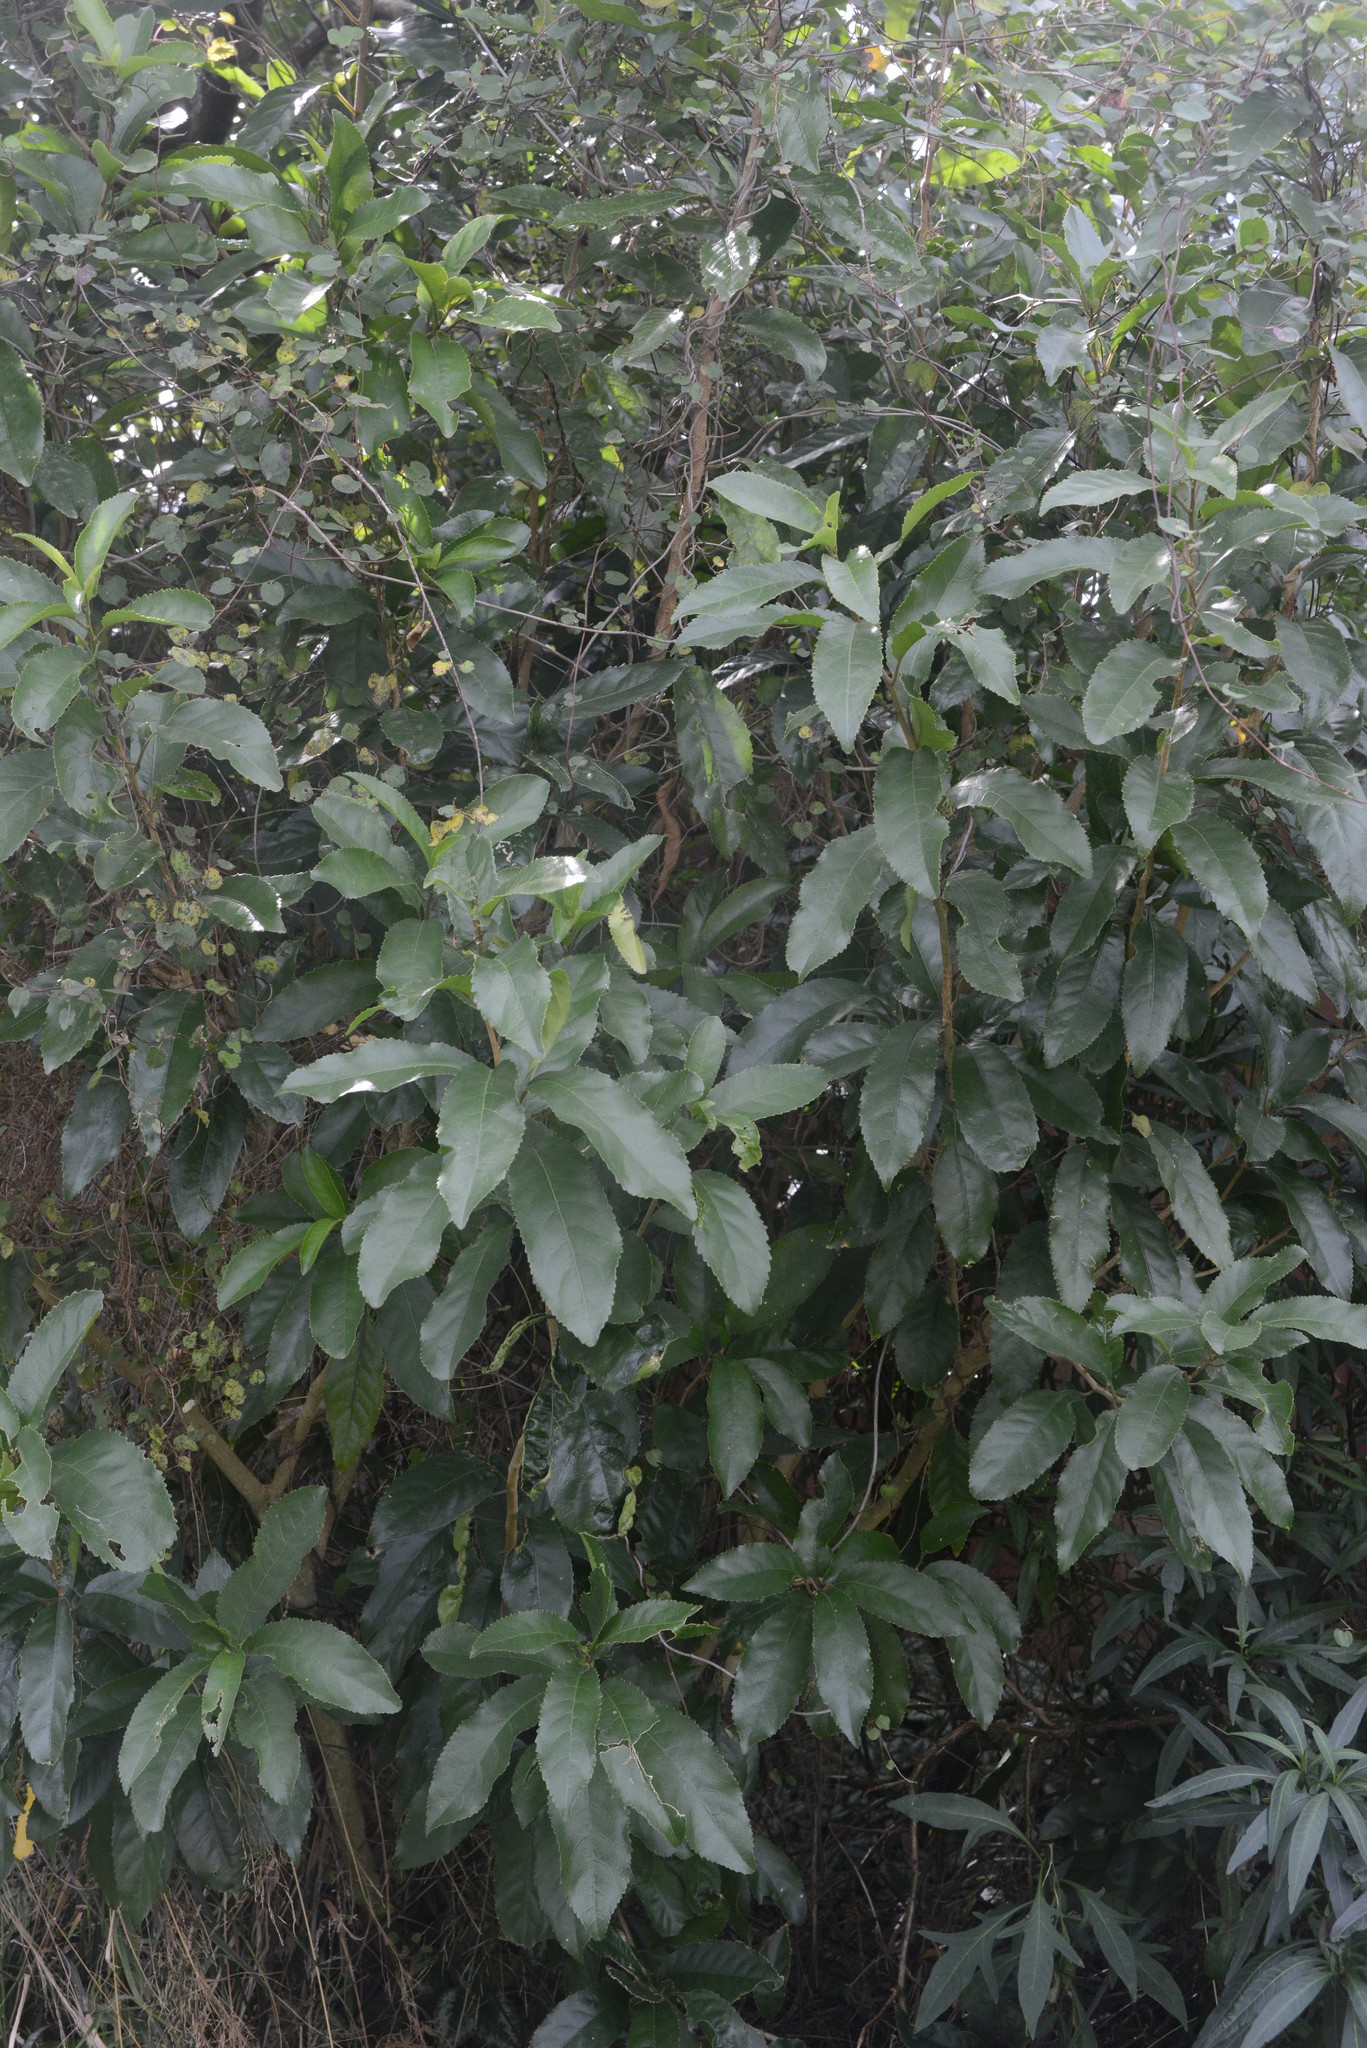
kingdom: Plantae
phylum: Tracheophyta
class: Magnoliopsida
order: Malpighiales
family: Violaceae
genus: Melicytus
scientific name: Melicytus ramiflorus
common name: Mahoe
